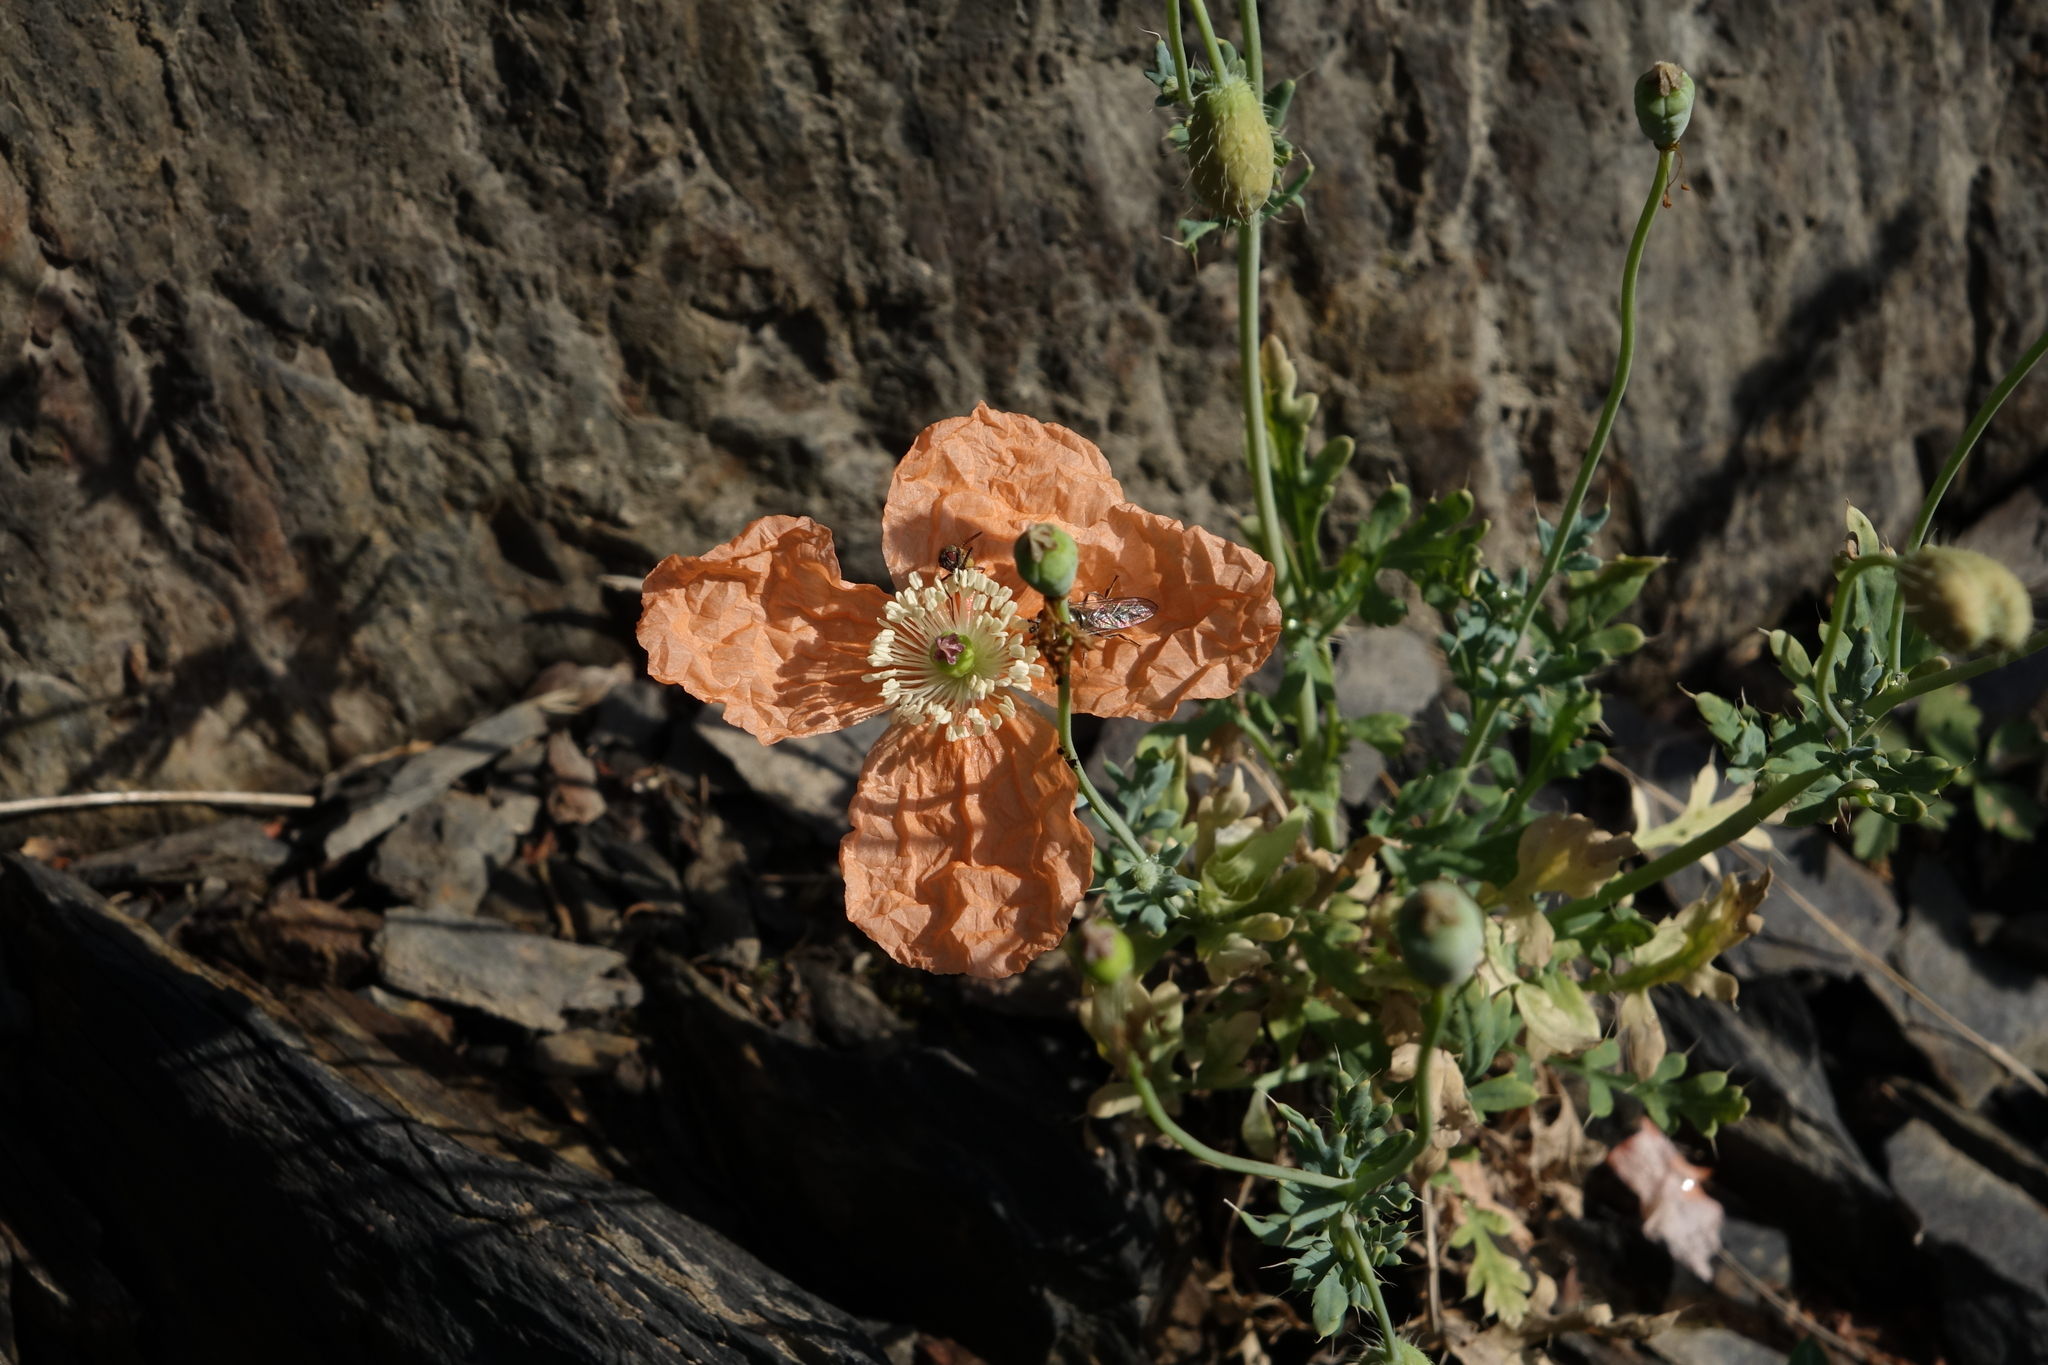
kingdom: Plantae
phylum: Tracheophyta
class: Magnoliopsida
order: Ranunculales
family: Papaveraceae
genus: Papaver
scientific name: Papaver armeniacum
